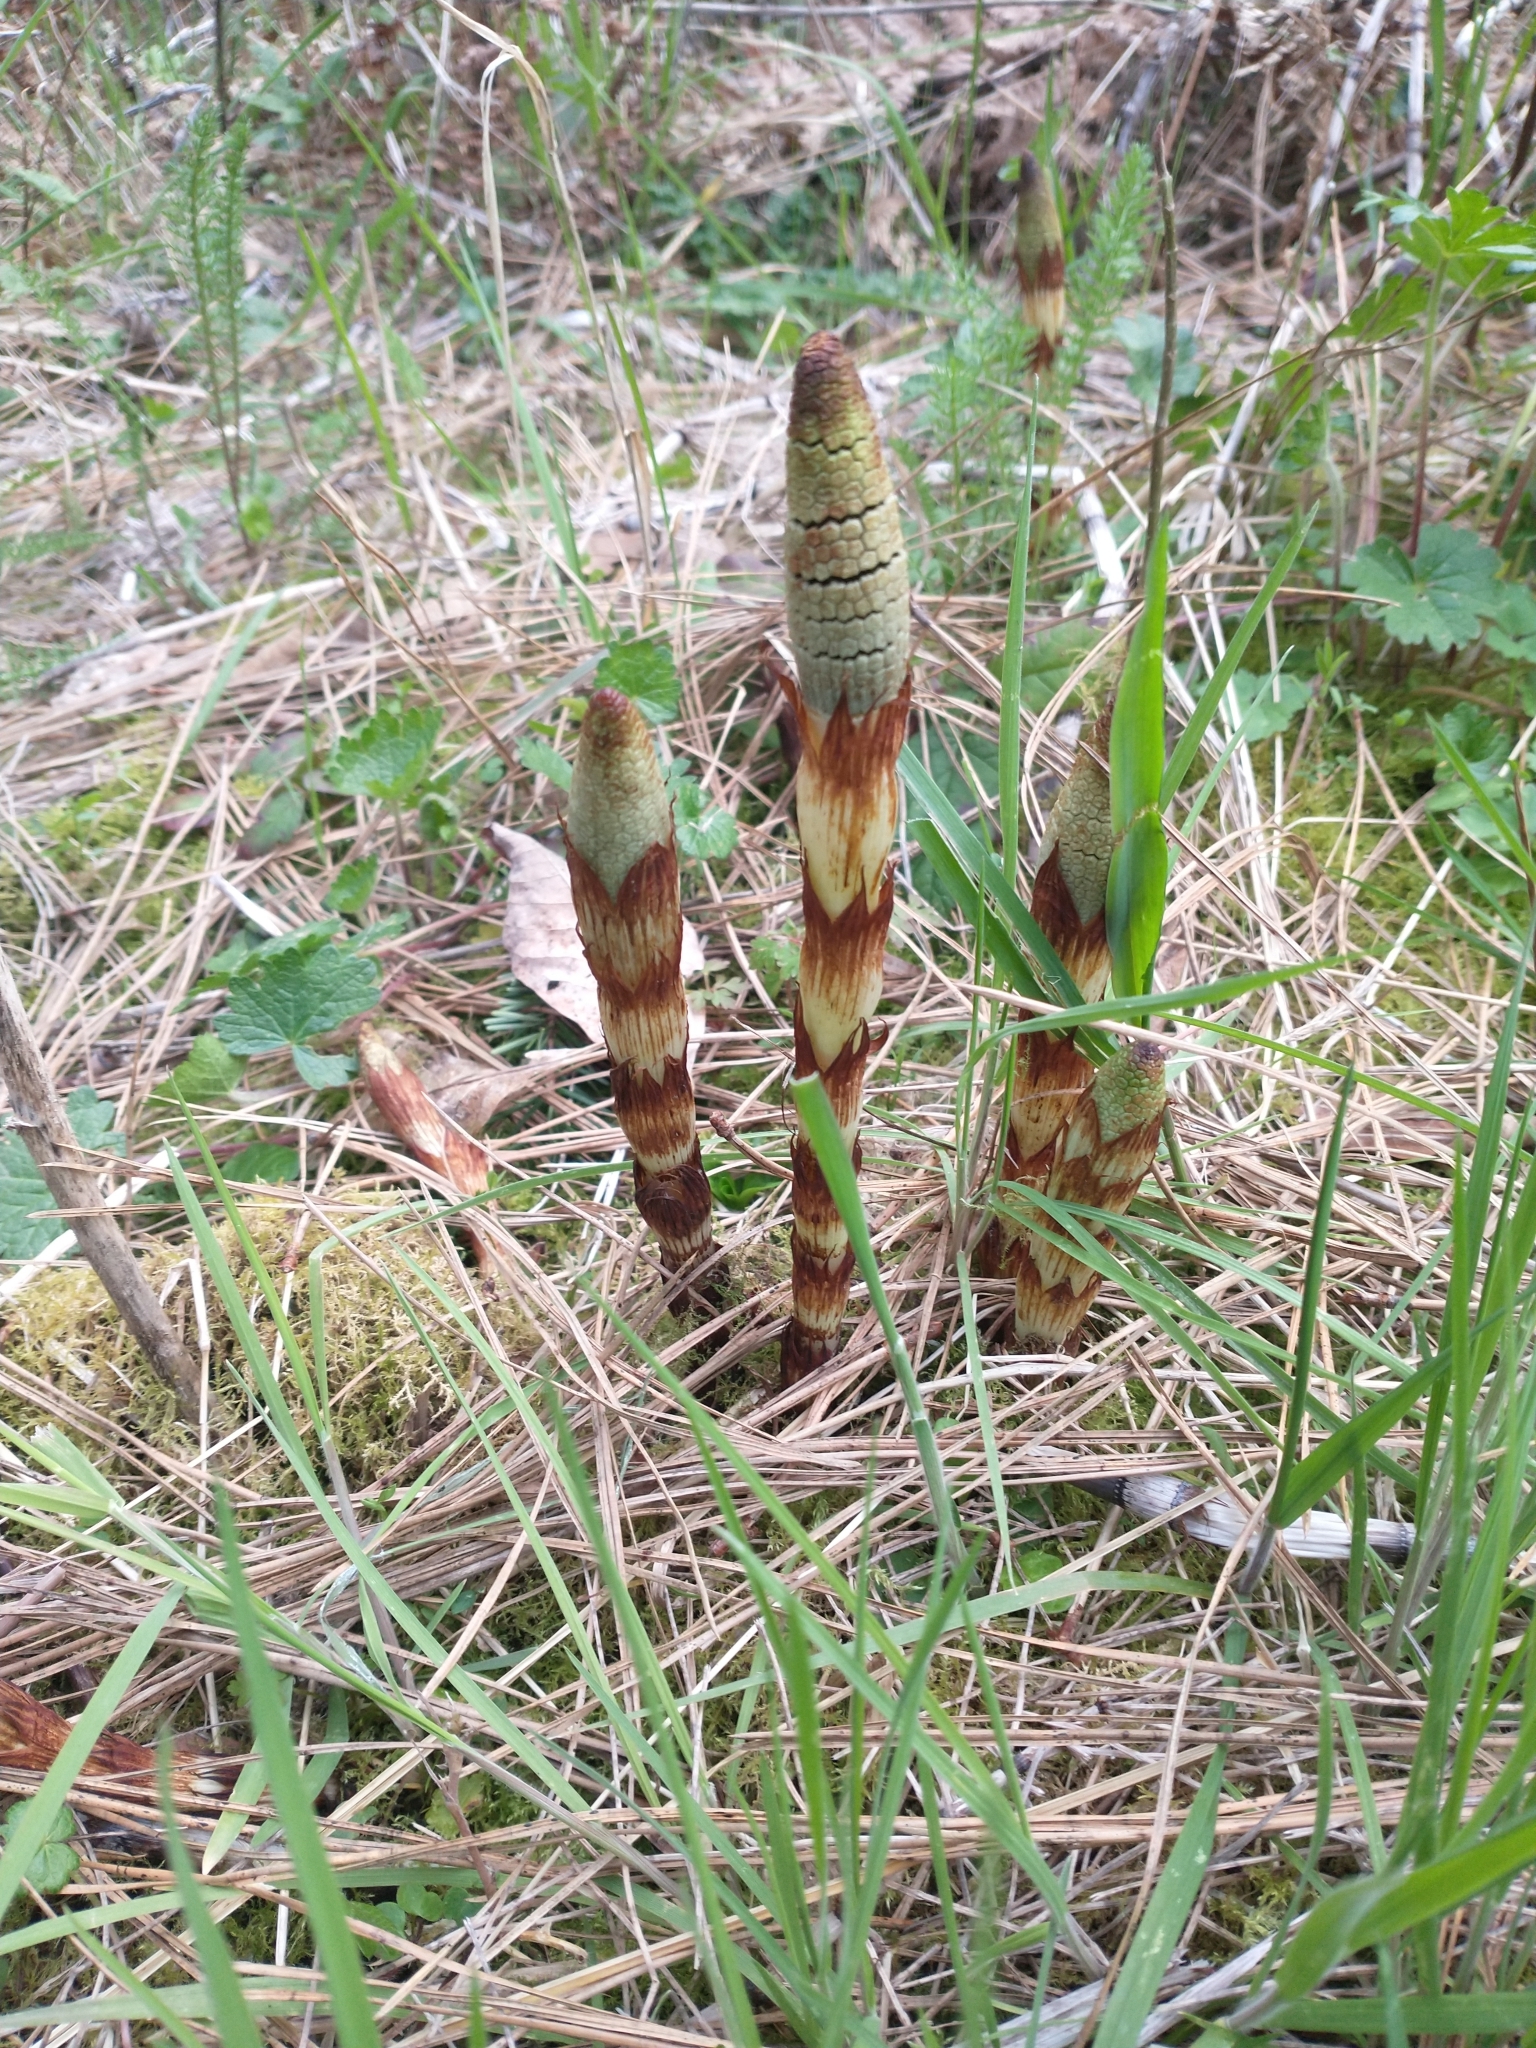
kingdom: Plantae
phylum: Tracheophyta
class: Polypodiopsida
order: Equisetales
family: Equisetaceae
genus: Equisetum
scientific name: Equisetum telmateia
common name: Great horsetail
